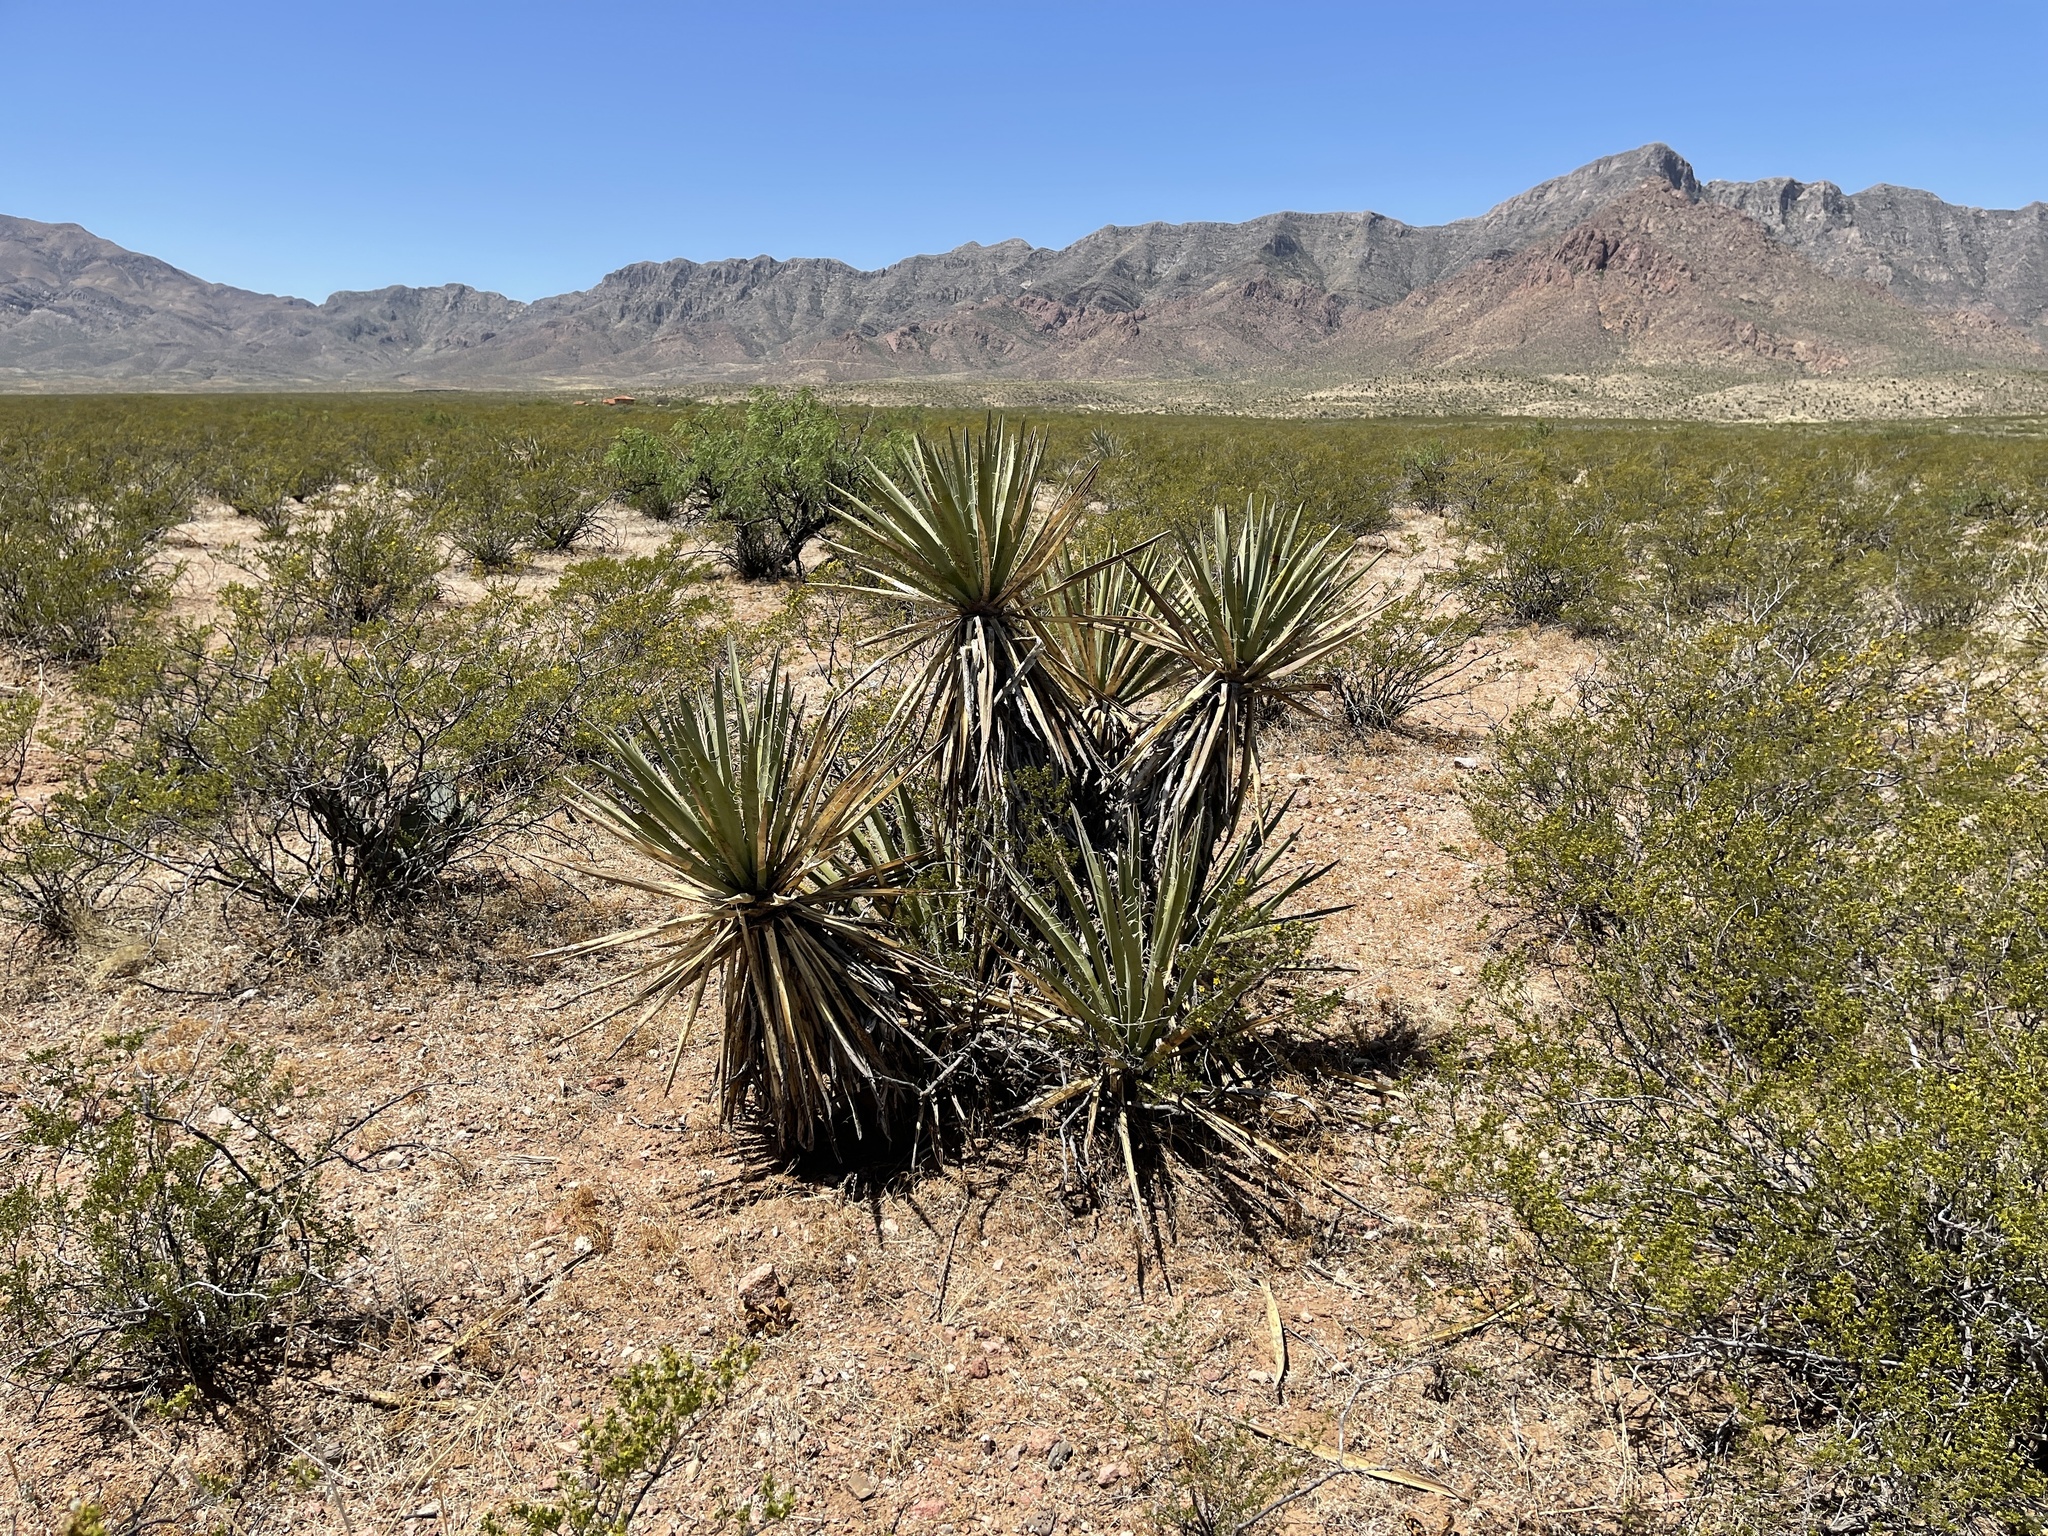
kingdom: Plantae
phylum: Tracheophyta
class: Liliopsida
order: Asparagales
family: Asparagaceae
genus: Yucca
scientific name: Yucca treculiana
